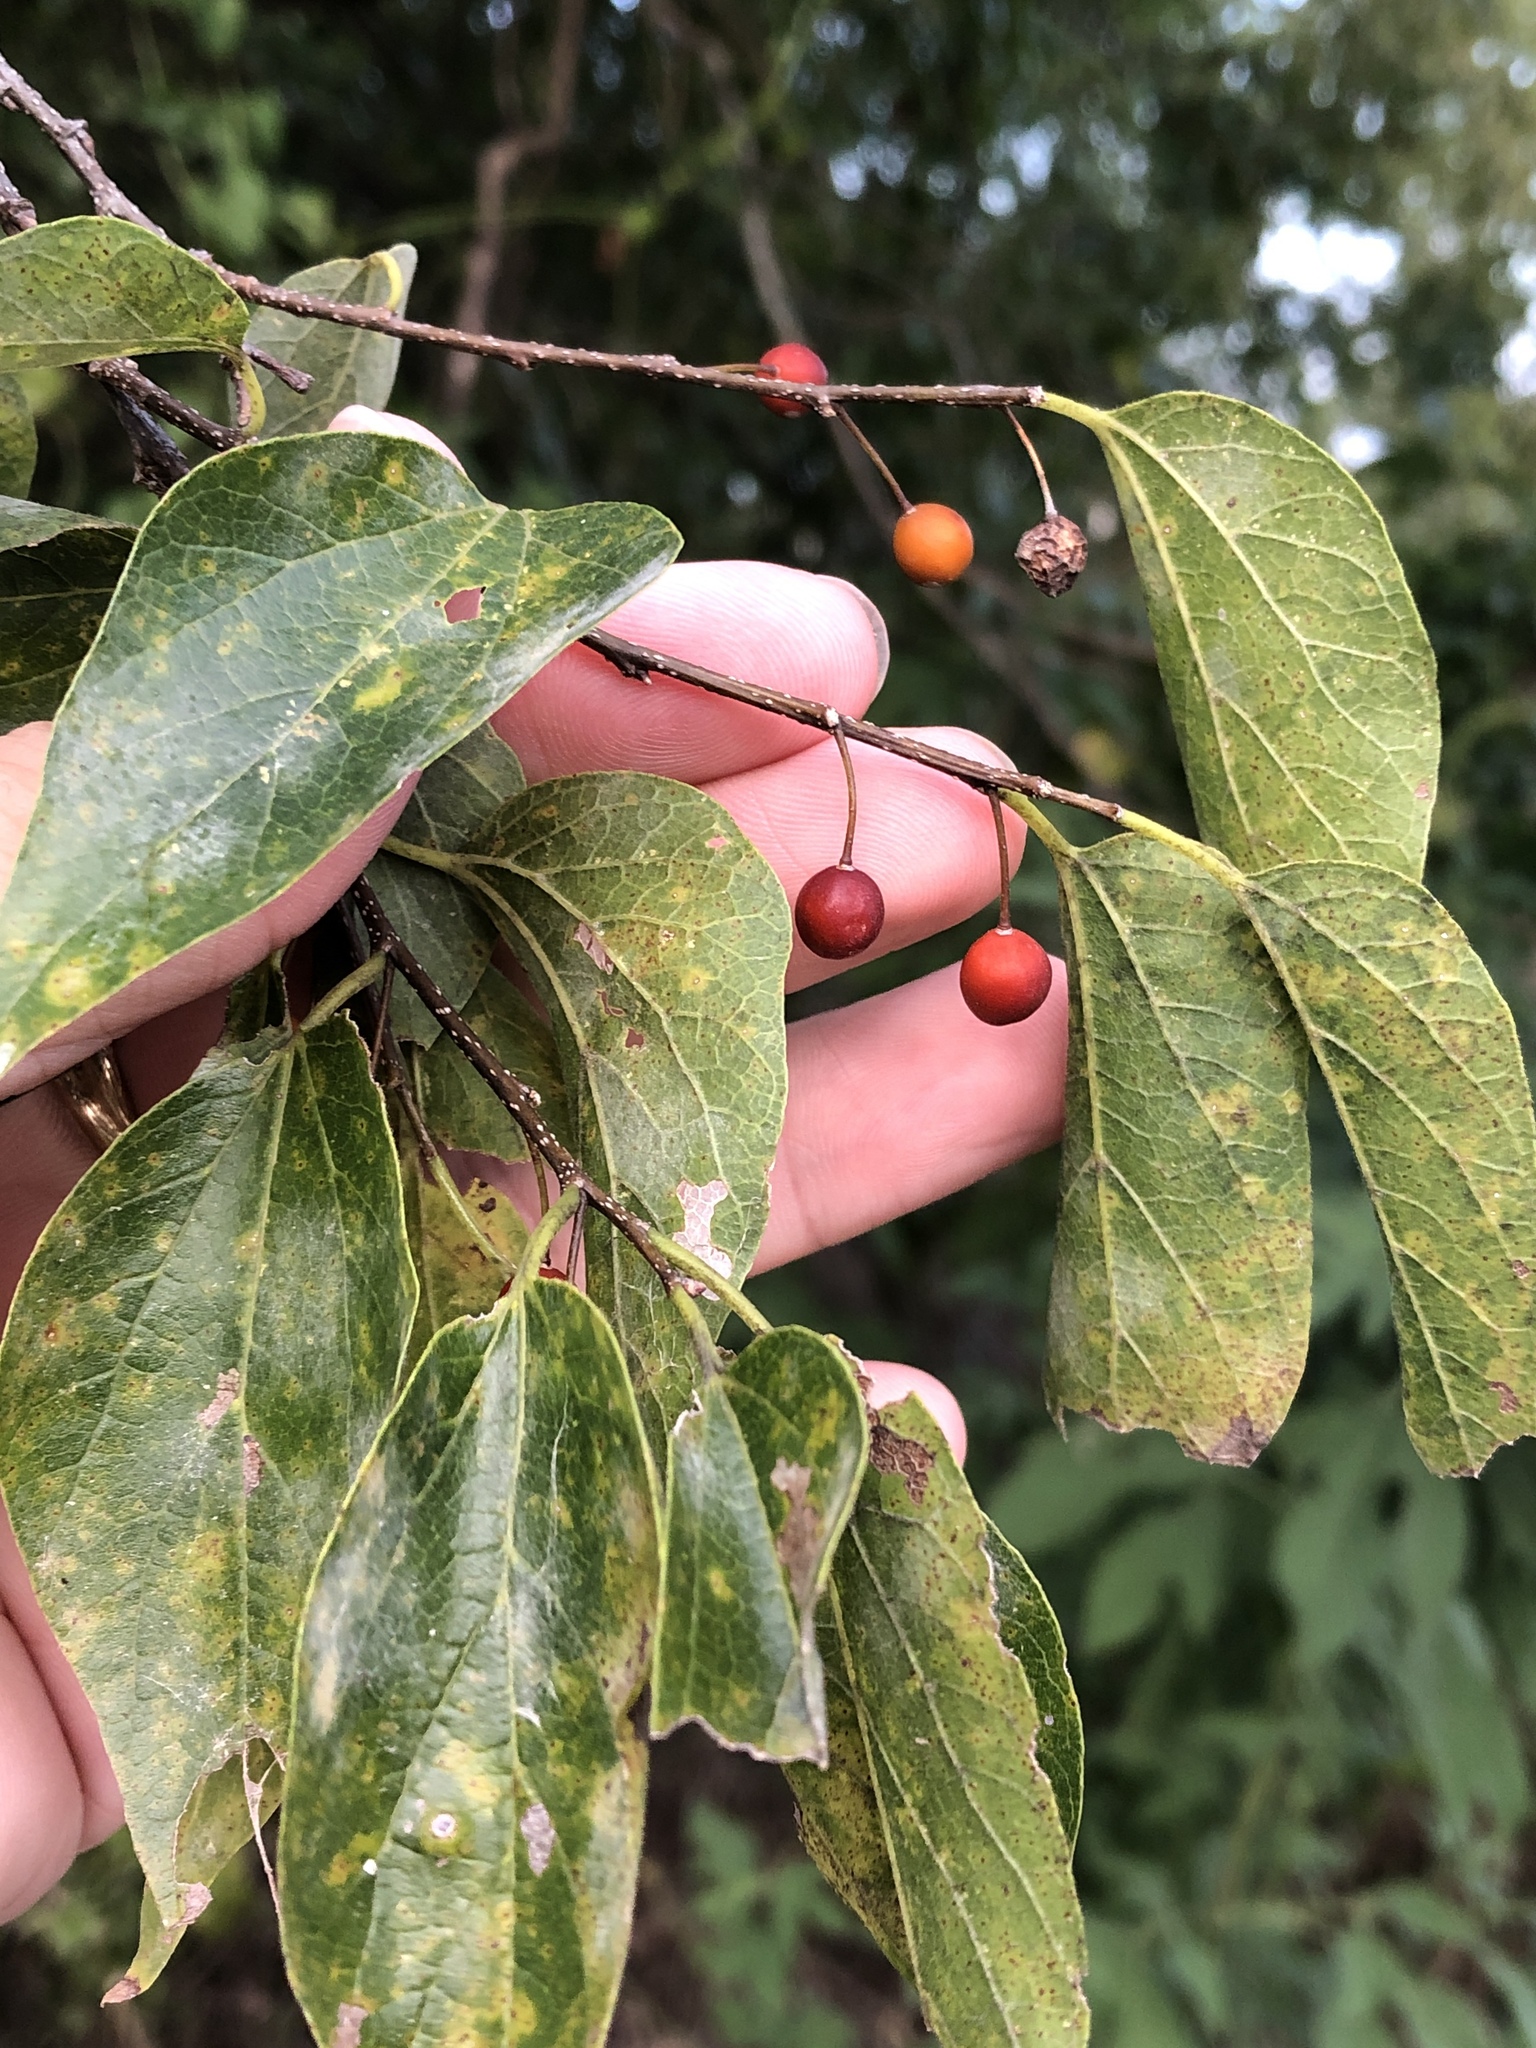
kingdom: Plantae
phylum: Tracheophyta
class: Magnoliopsida
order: Rosales
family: Cannabaceae
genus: Celtis
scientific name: Celtis laevigata
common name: Sugarberry
